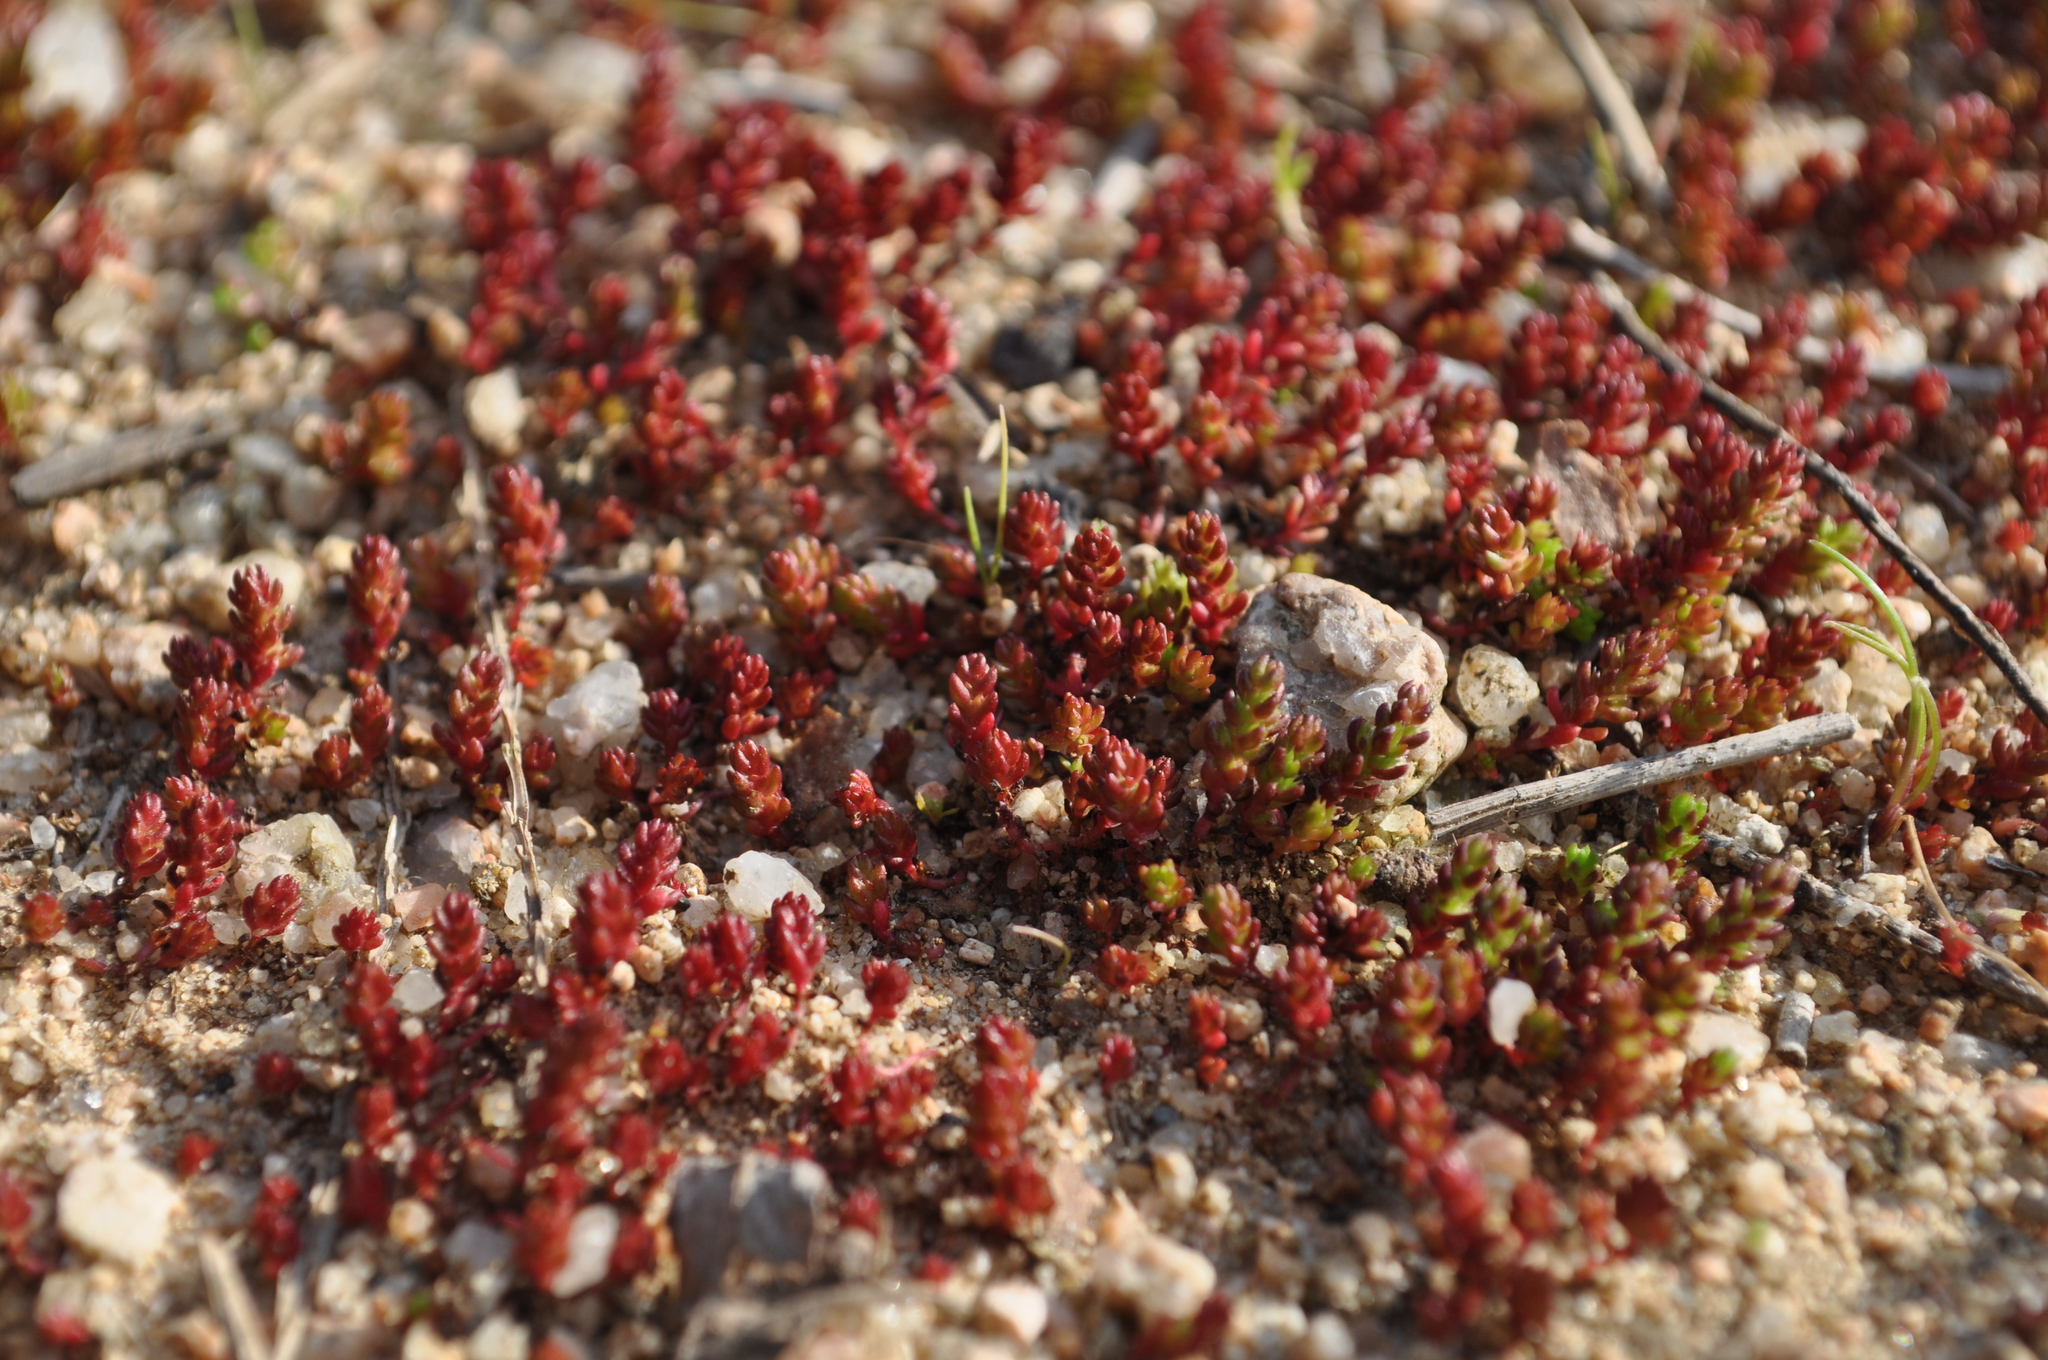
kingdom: Plantae
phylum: Tracheophyta
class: Magnoliopsida
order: Saxifragales
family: Crassulaceae
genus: Crassula
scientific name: Crassula tillaea
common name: Mossy stonecrop
